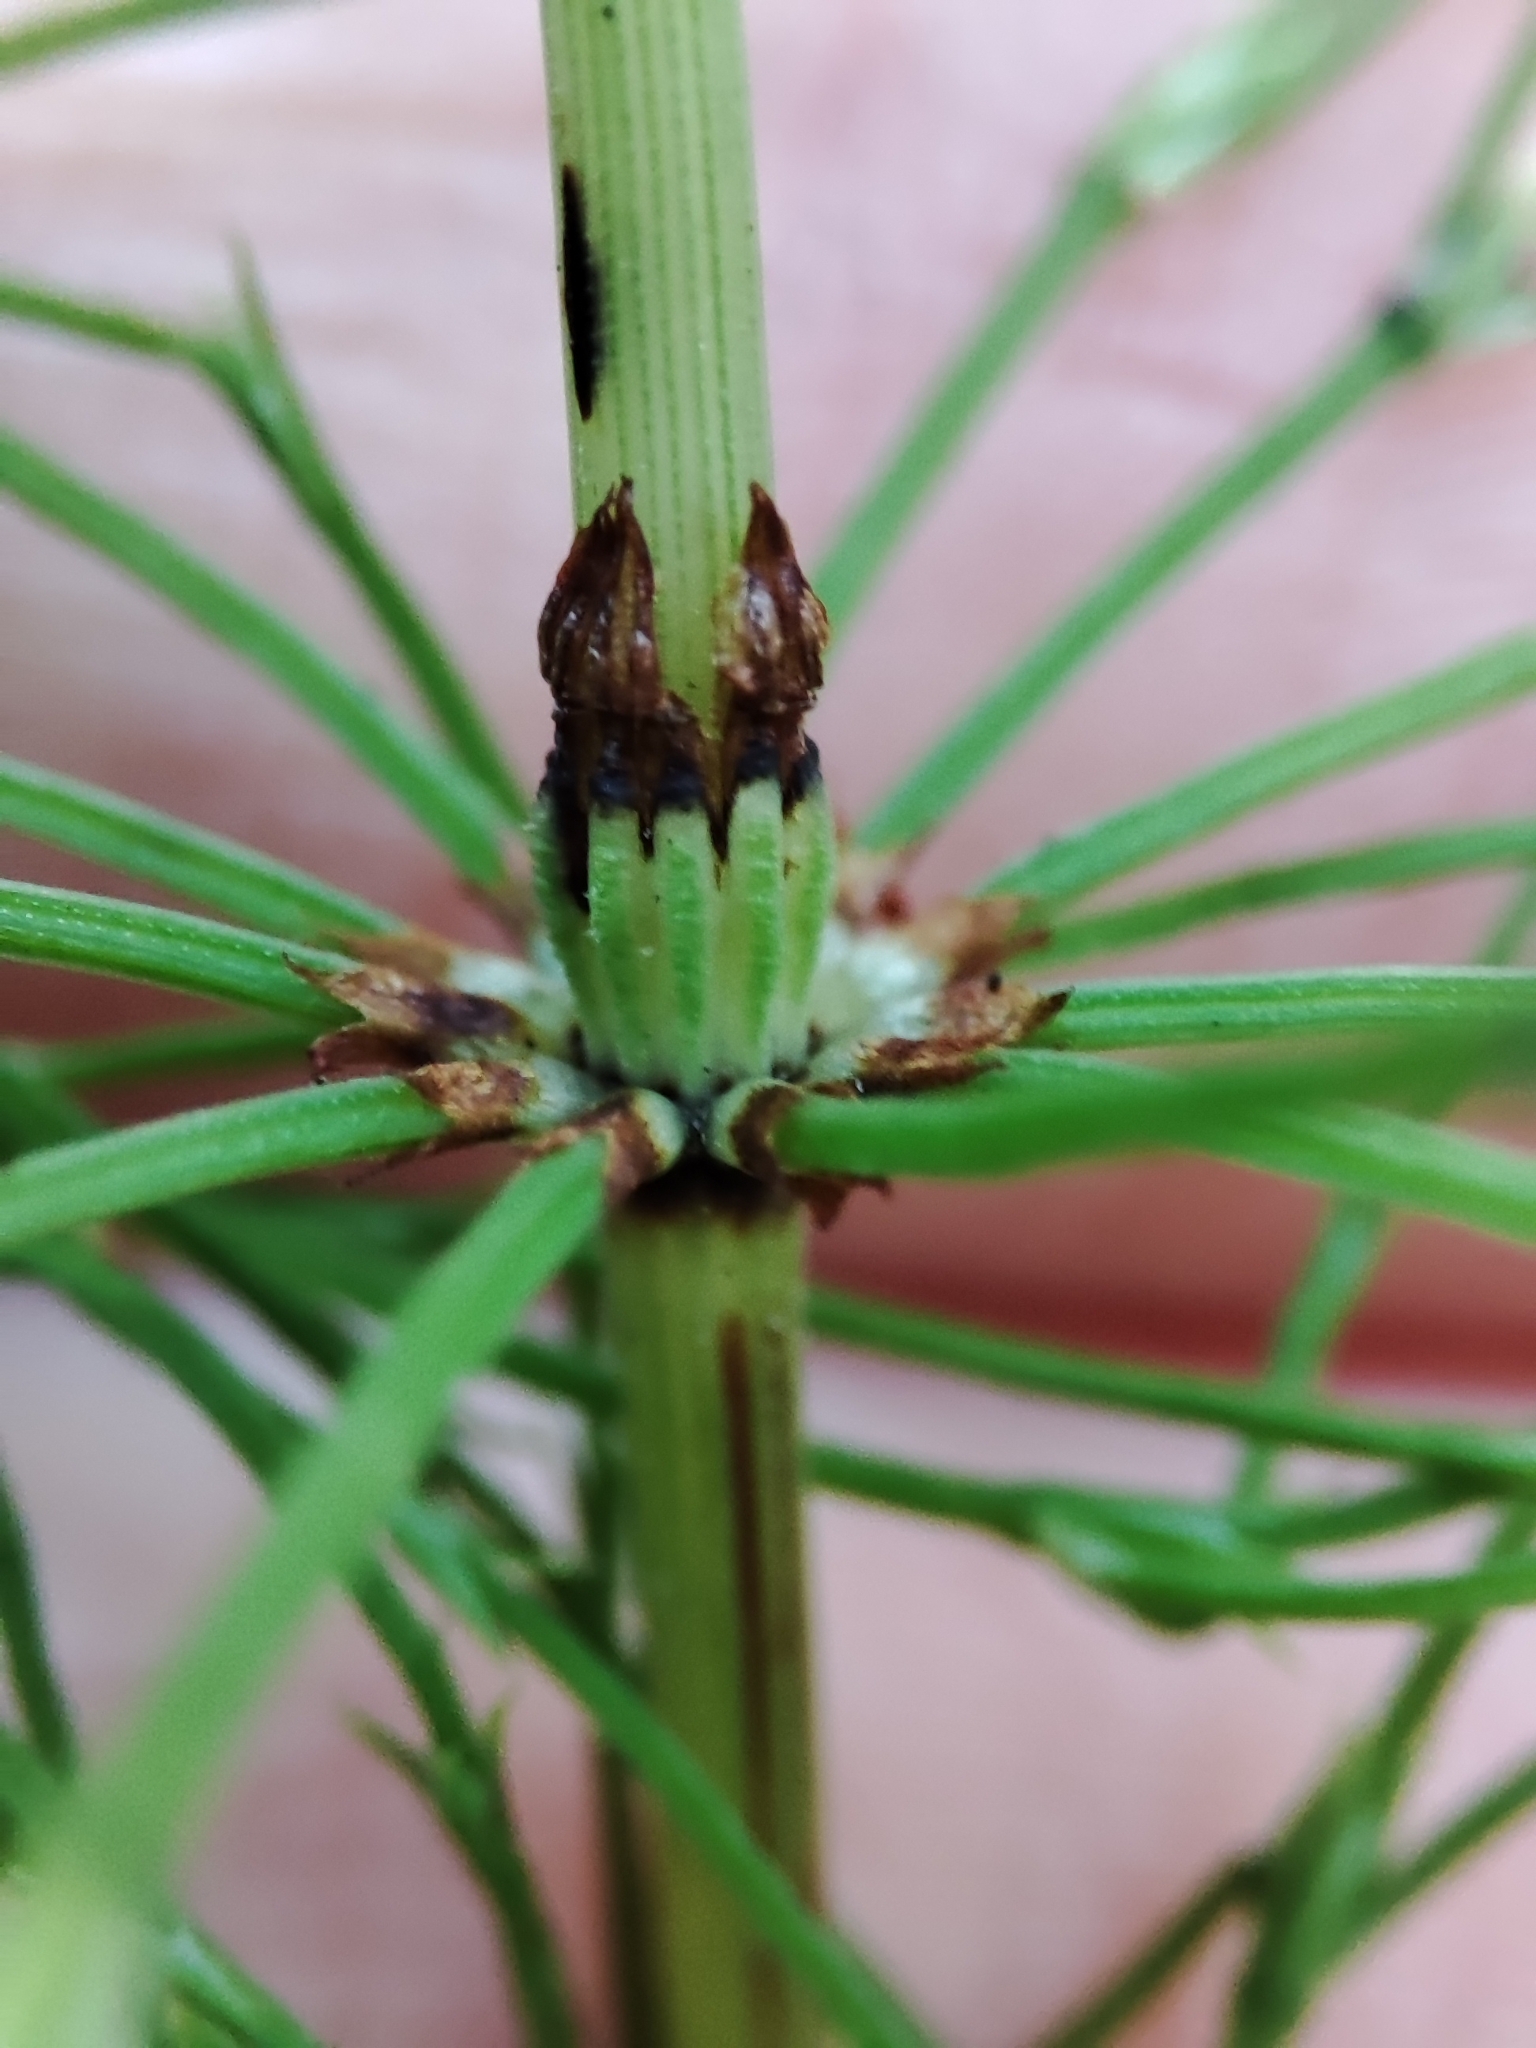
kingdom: Plantae
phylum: Tracheophyta
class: Polypodiopsida
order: Equisetales
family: Equisetaceae
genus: Equisetum
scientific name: Equisetum sylvaticum
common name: Wood horsetail
